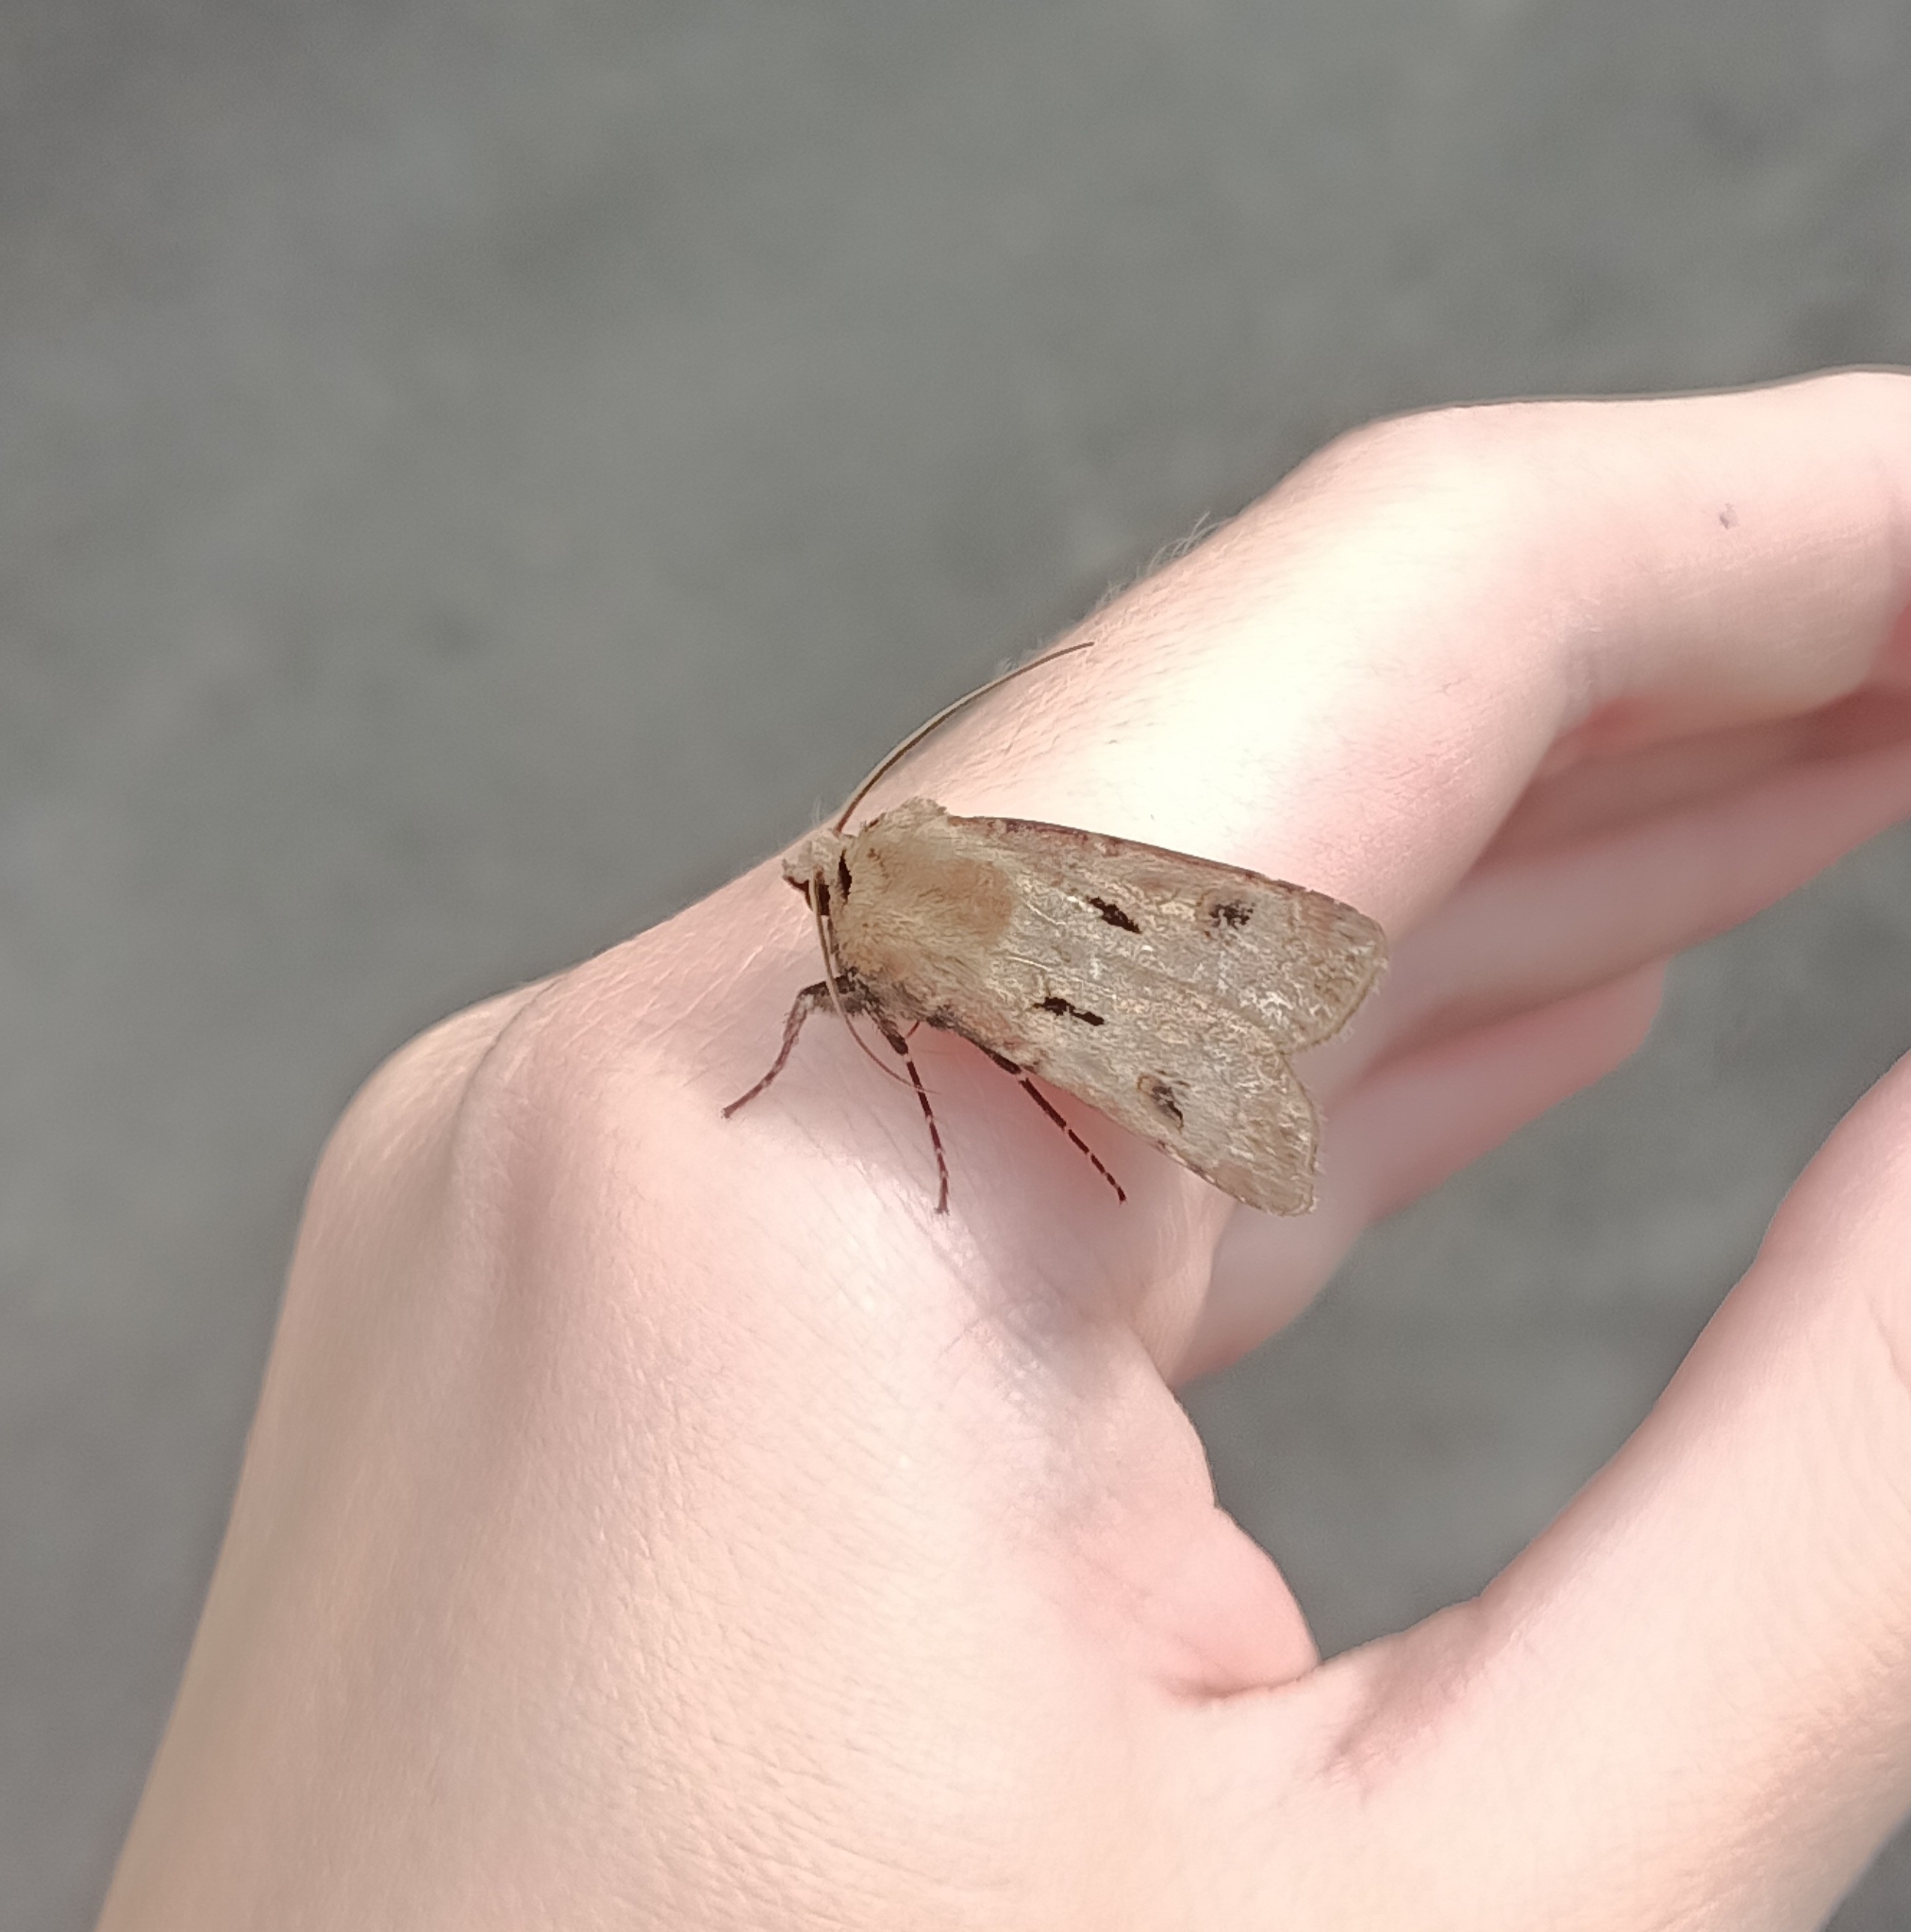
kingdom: Animalia
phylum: Arthropoda
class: Insecta
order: Lepidoptera
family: Noctuidae
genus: Agrotis
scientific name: Agrotis exclamationis
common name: Heart and dart
